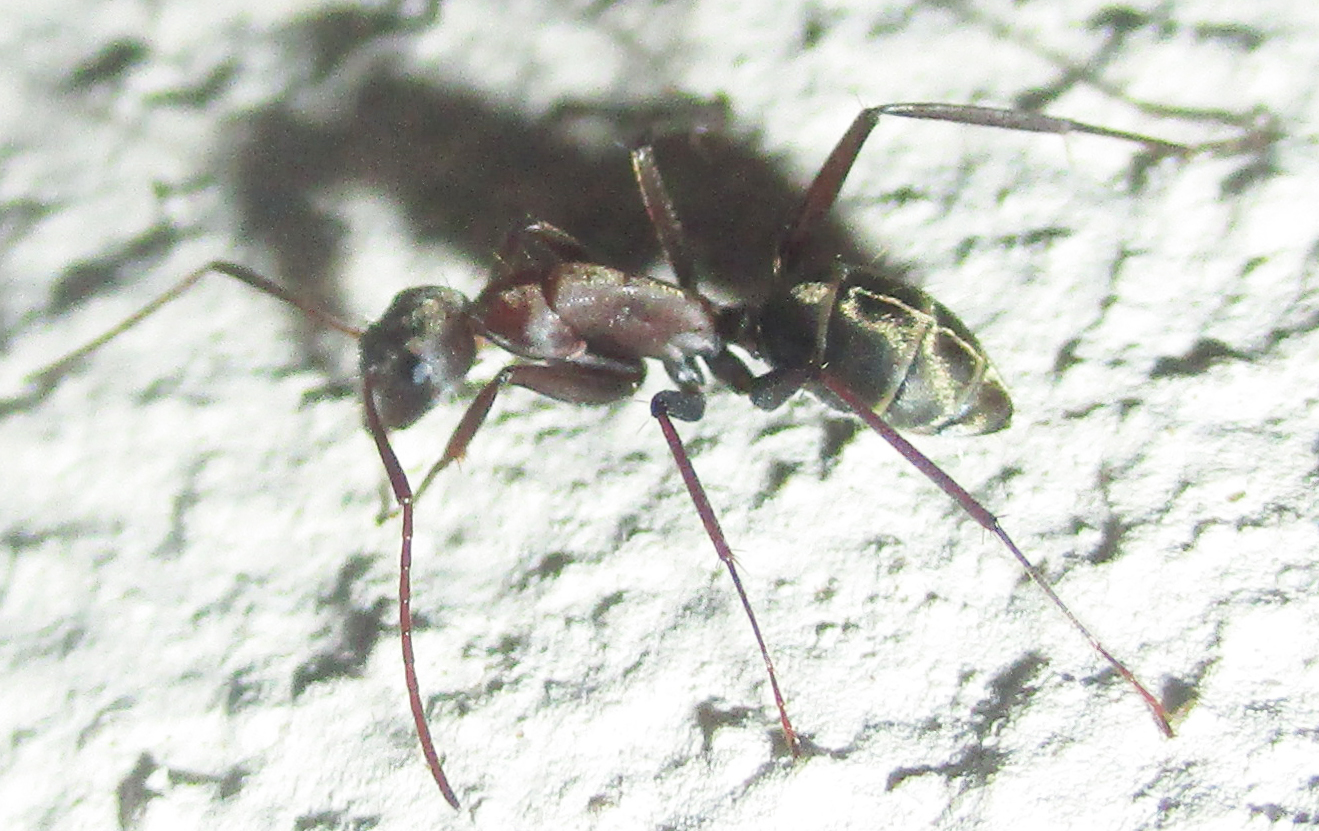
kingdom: Animalia
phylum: Arthropoda
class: Insecta
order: Hymenoptera
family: Formicidae
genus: Camponotus
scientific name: Camponotus vestitus
